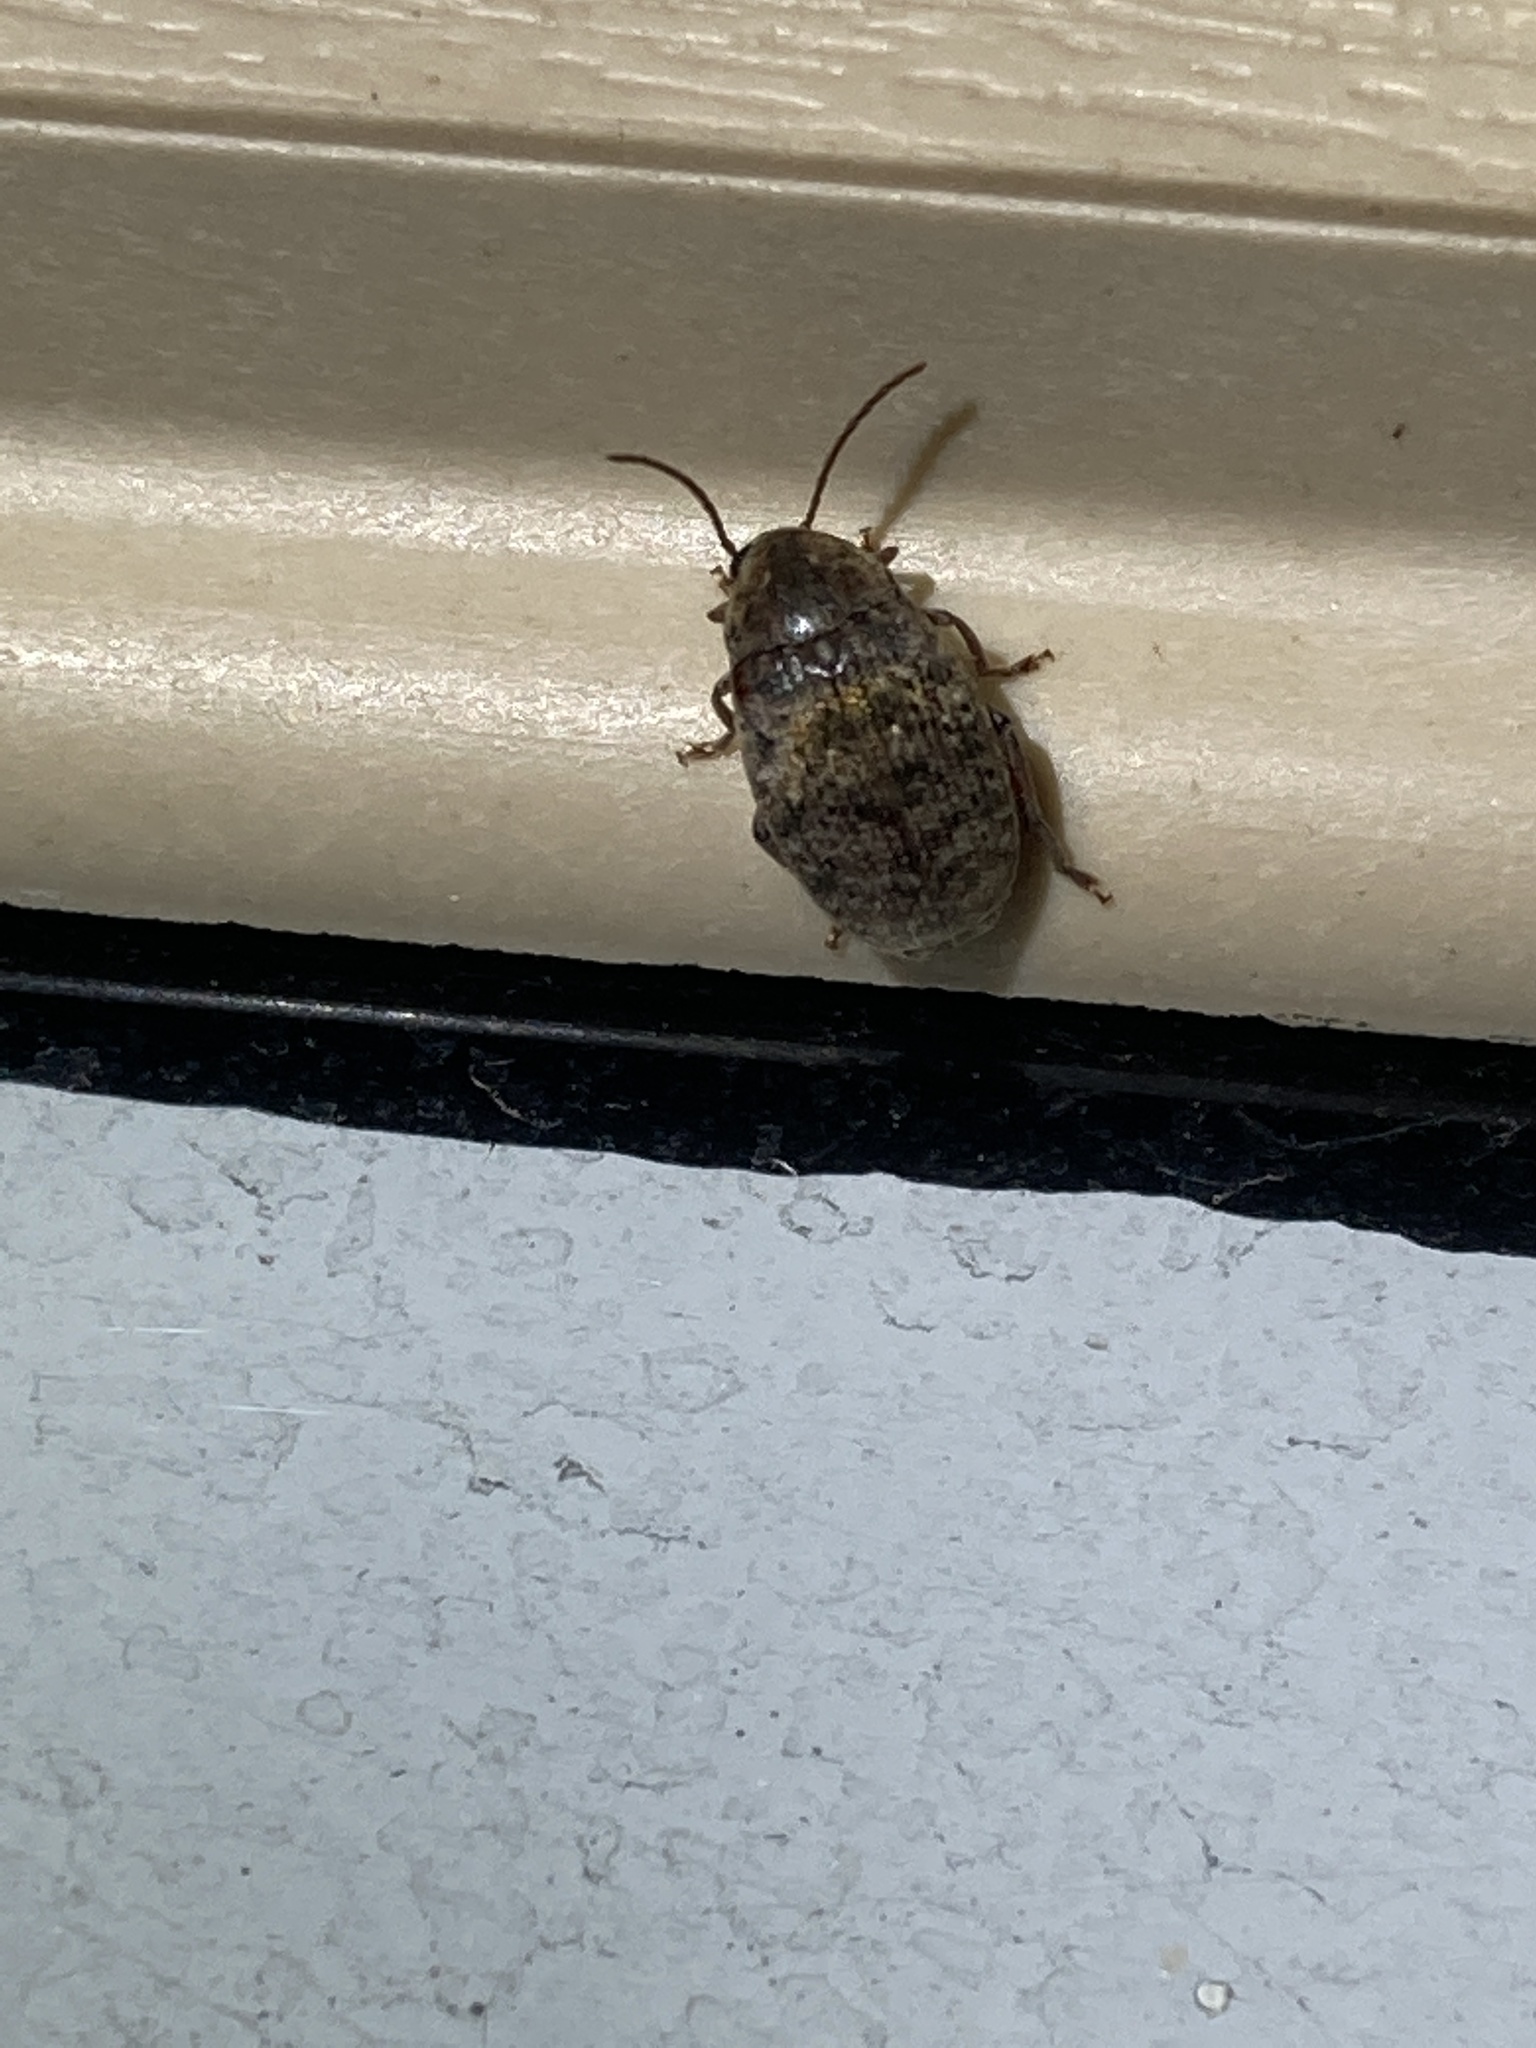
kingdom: Animalia
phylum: Arthropoda
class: Insecta
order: Coleoptera
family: Chrysomelidae
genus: Amblycerus
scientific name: Amblycerus robiniae
